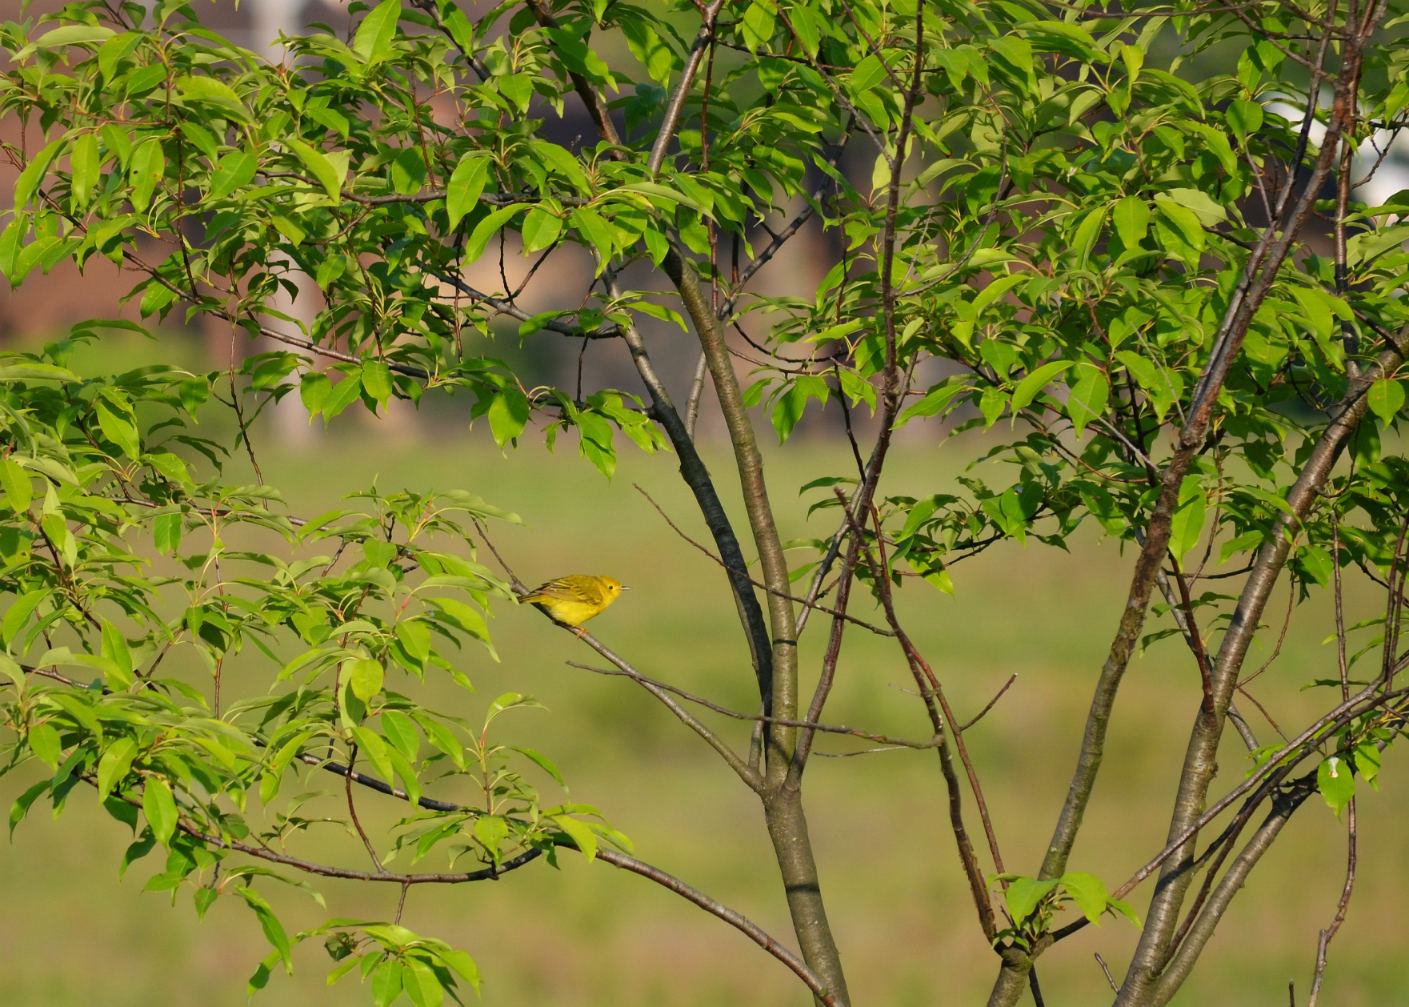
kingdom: Animalia
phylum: Chordata
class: Aves
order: Passeriformes
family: Parulidae
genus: Setophaga
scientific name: Setophaga petechia
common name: Yellow warbler
